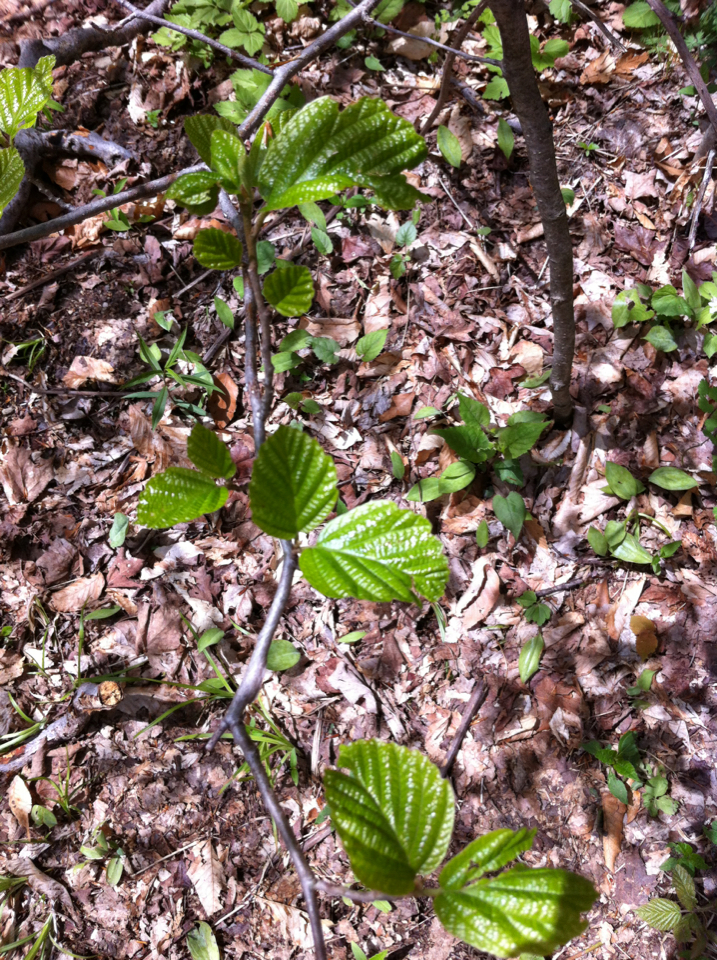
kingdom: Plantae
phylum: Tracheophyta
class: Magnoliopsida
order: Saxifragales
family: Hamamelidaceae
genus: Hamamelis
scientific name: Hamamelis virginiana
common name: Witch-hazel
